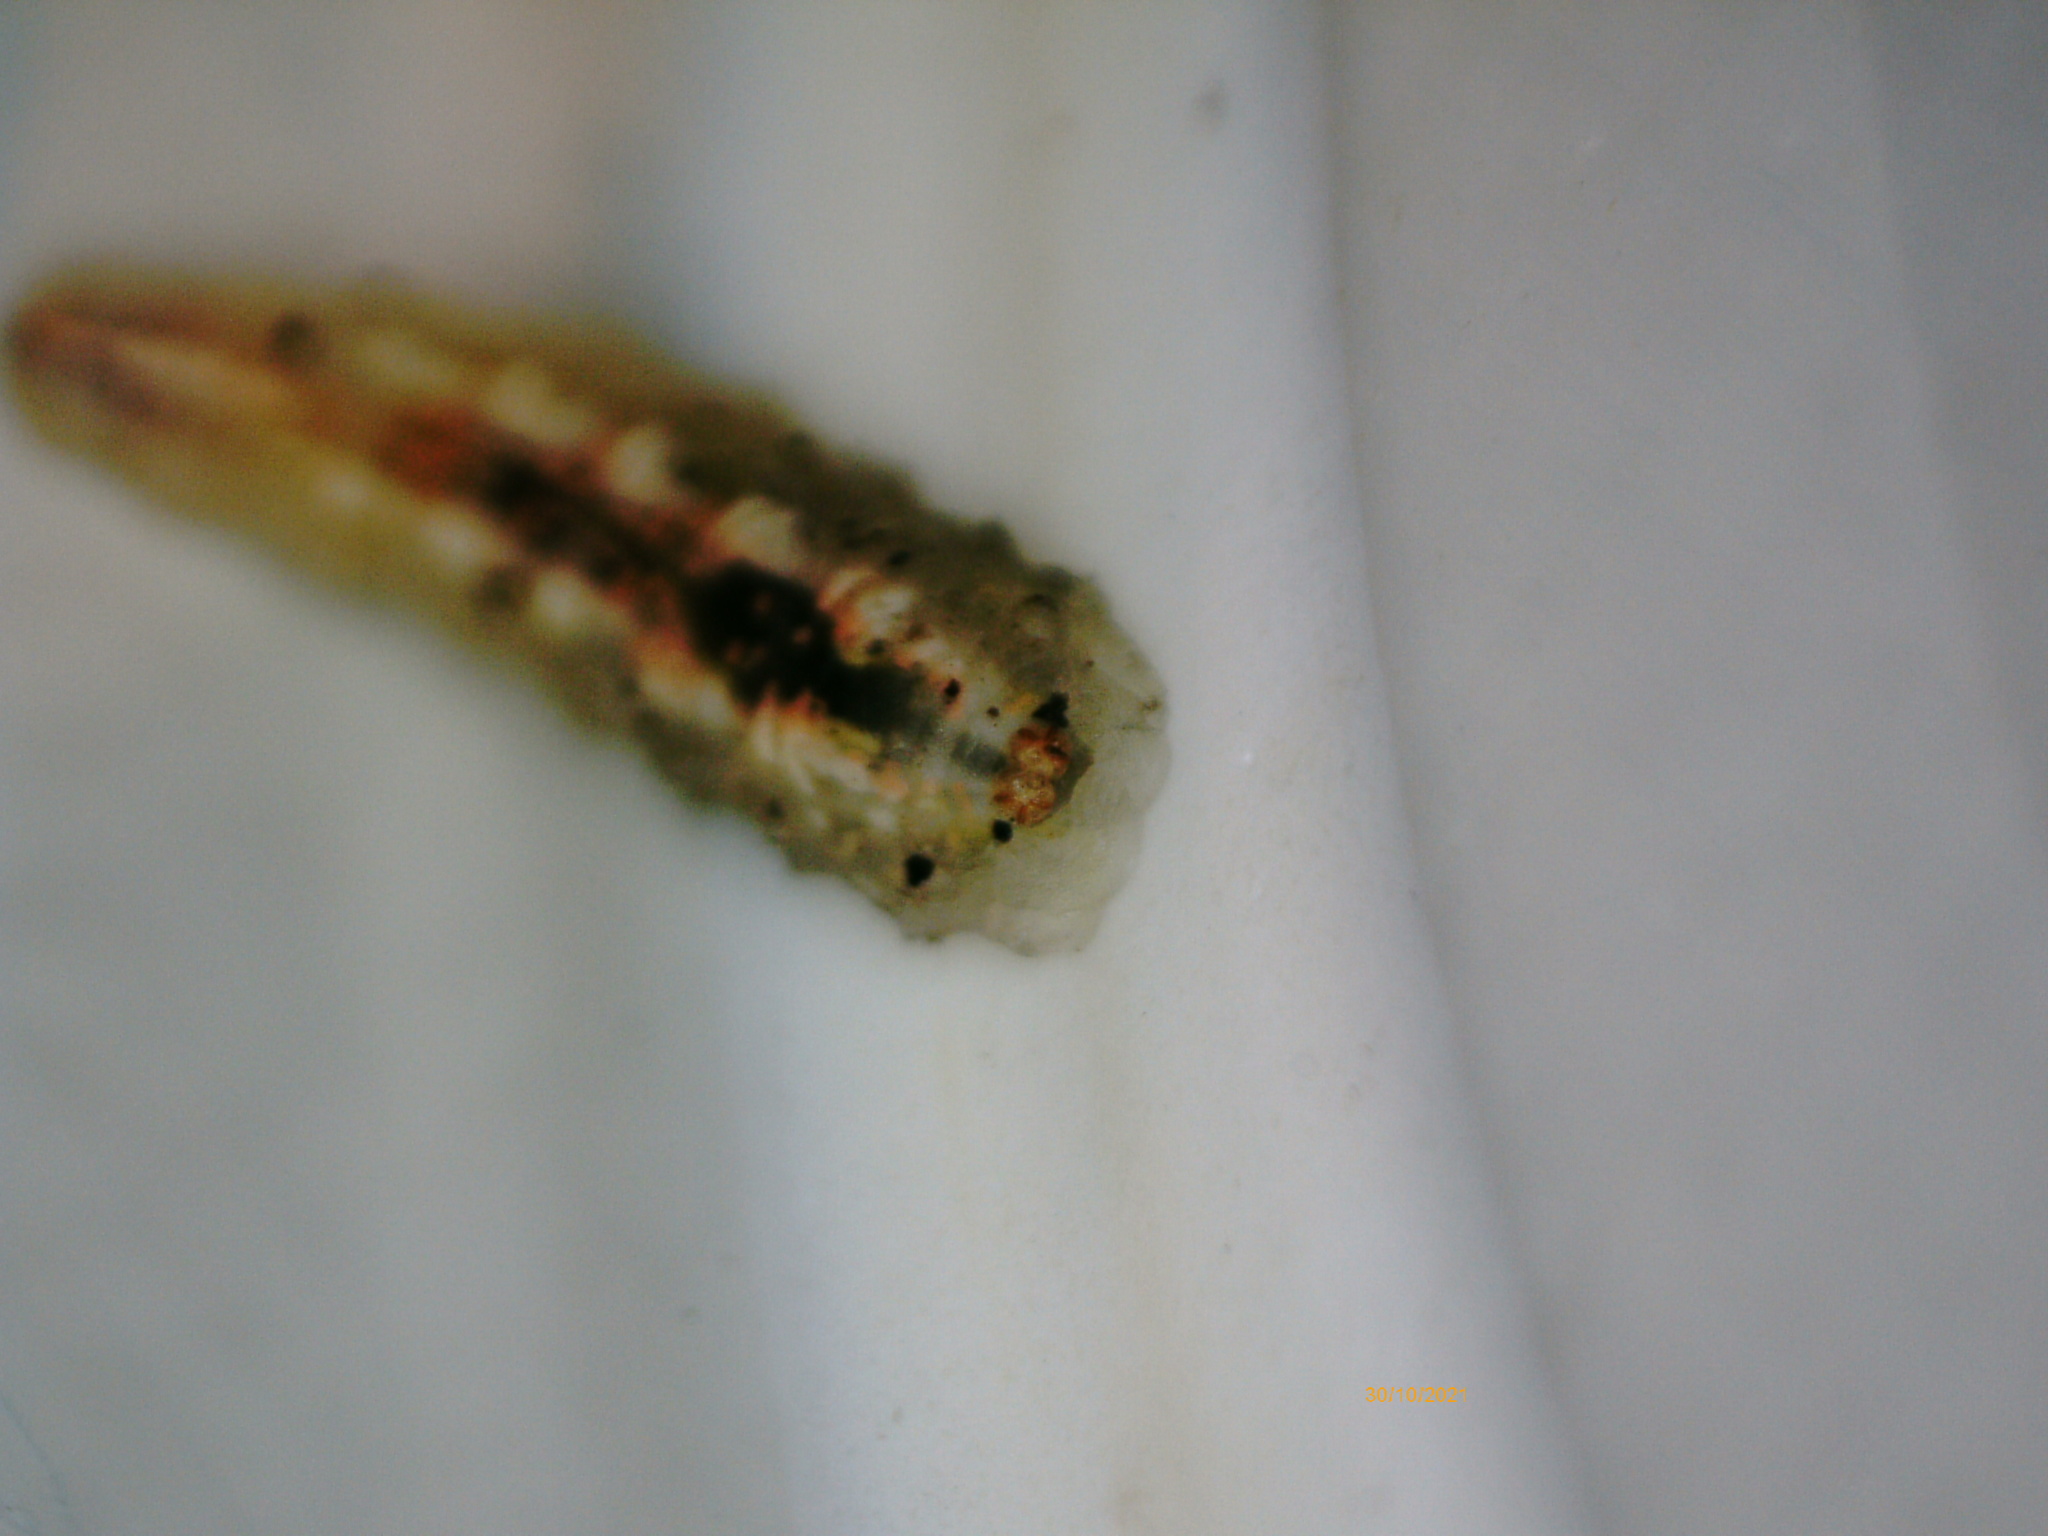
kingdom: Animalia
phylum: Arthropoda
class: Insecta
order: Diptera
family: Syrphidae
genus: Syrphus
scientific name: Syrphus ribesii
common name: Common flower fly
